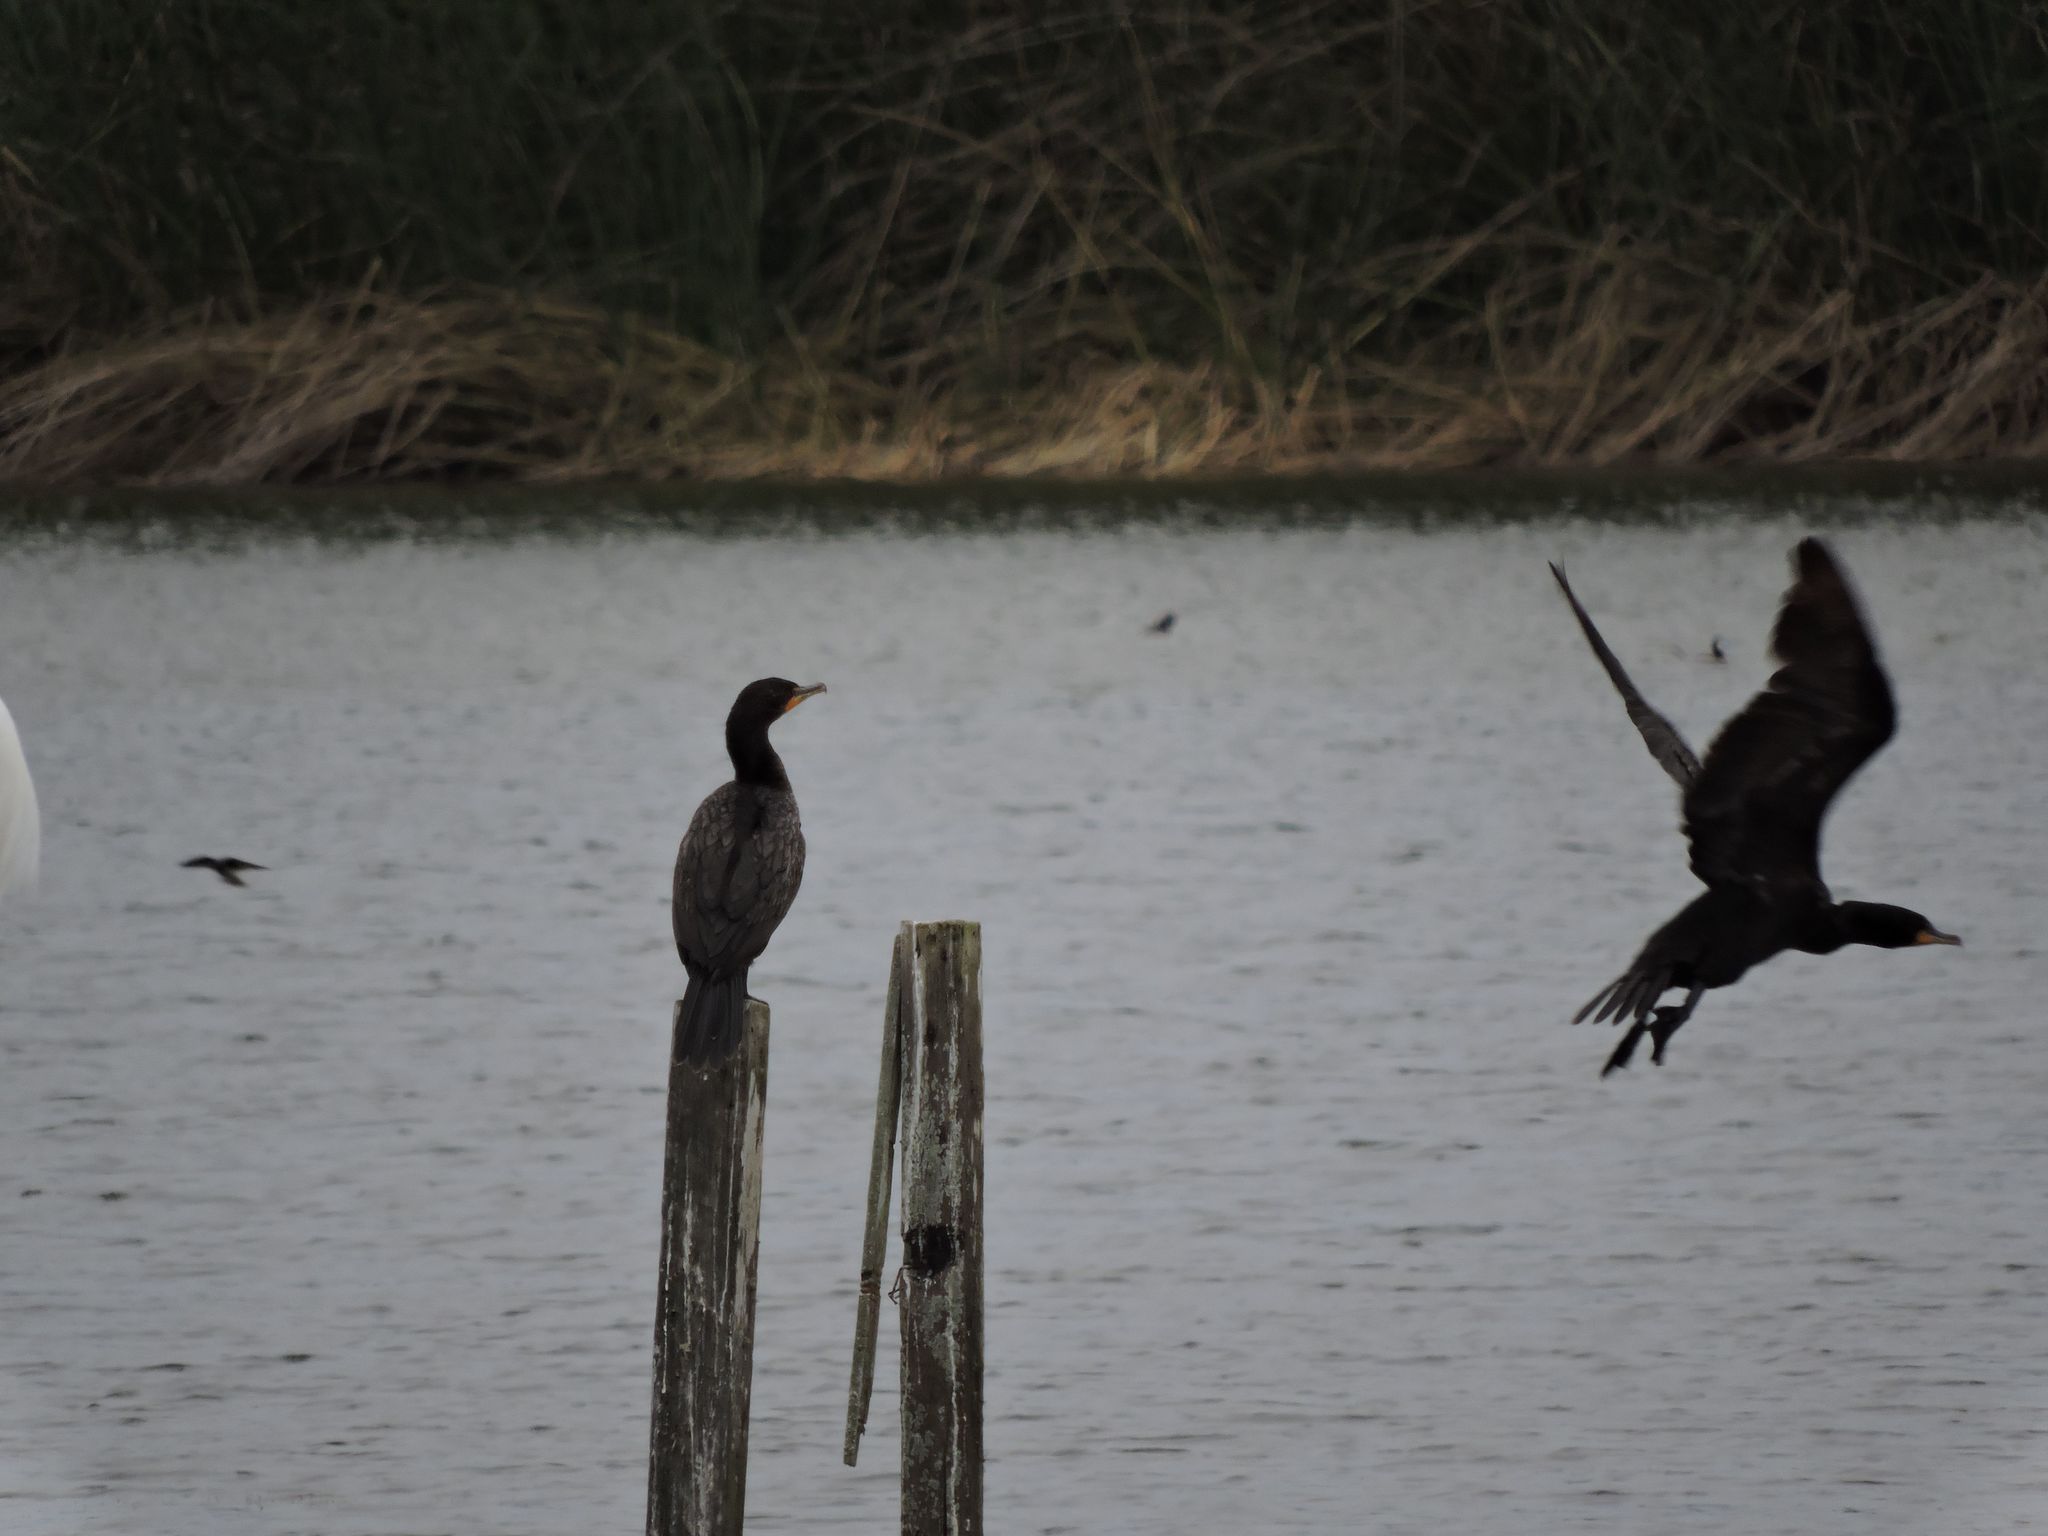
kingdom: Animalia
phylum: Chordata
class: Aves
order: Suliformes
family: Phalacrocoracidae
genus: Phalacrocorax
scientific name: Phalacrocorax auritus
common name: Double-crested cormorant
